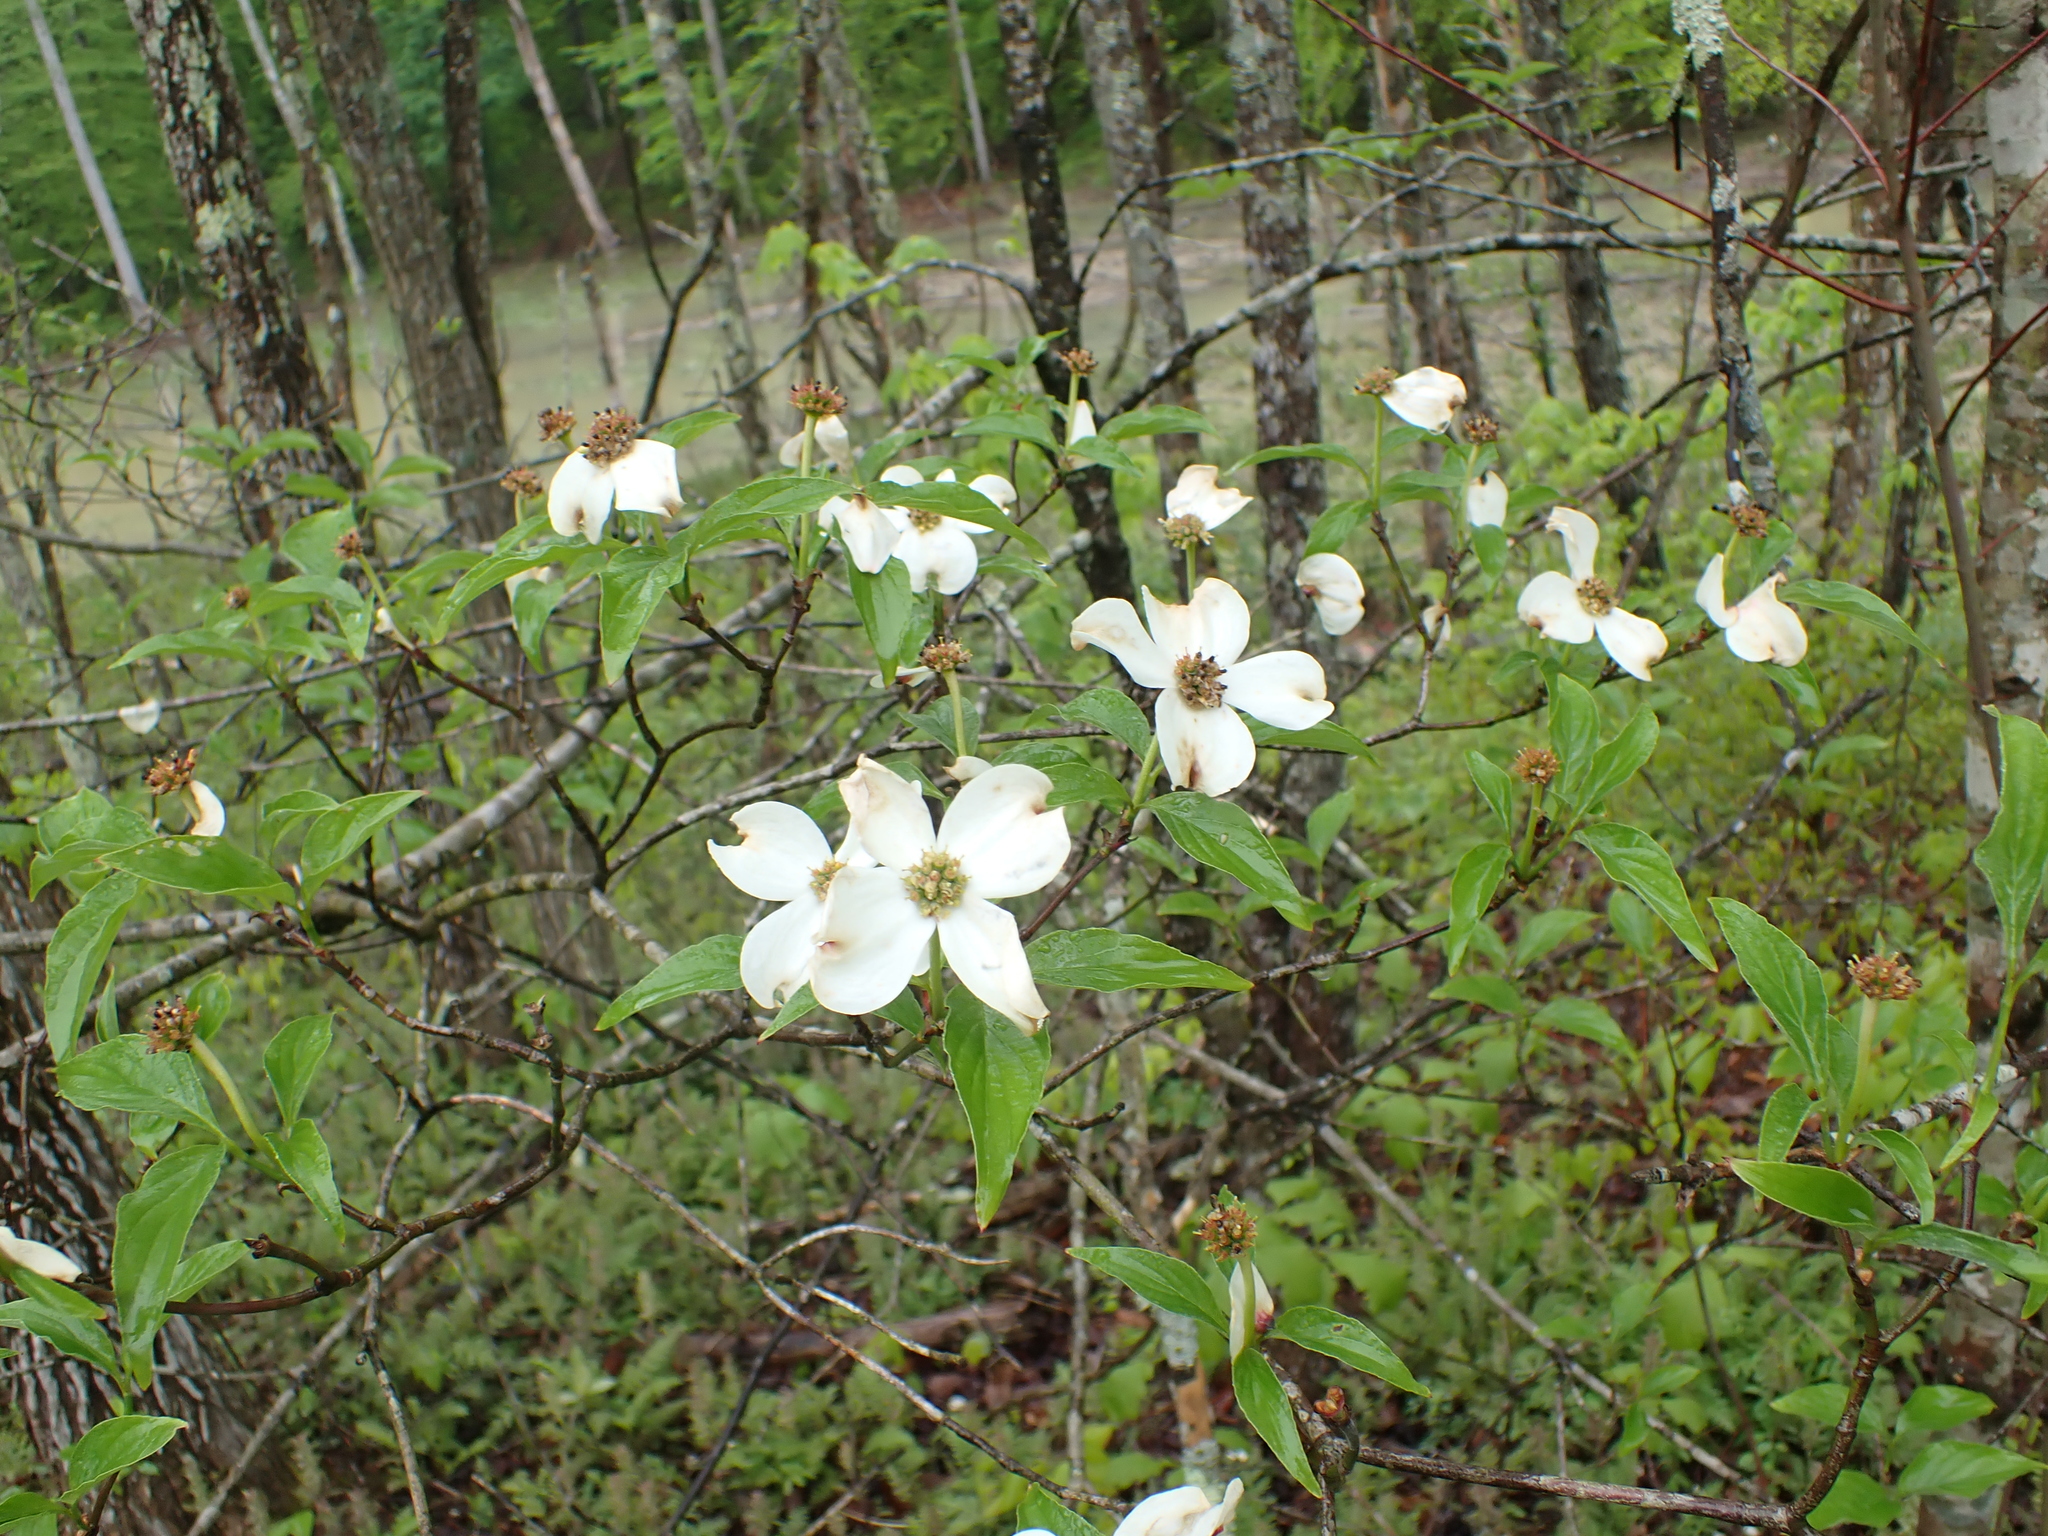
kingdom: Plantae
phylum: Tracheophyta
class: Magnoliopsida
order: Cornales
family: Cornaceae
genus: Cornus
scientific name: Cornus florida
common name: Flowering dogwood
